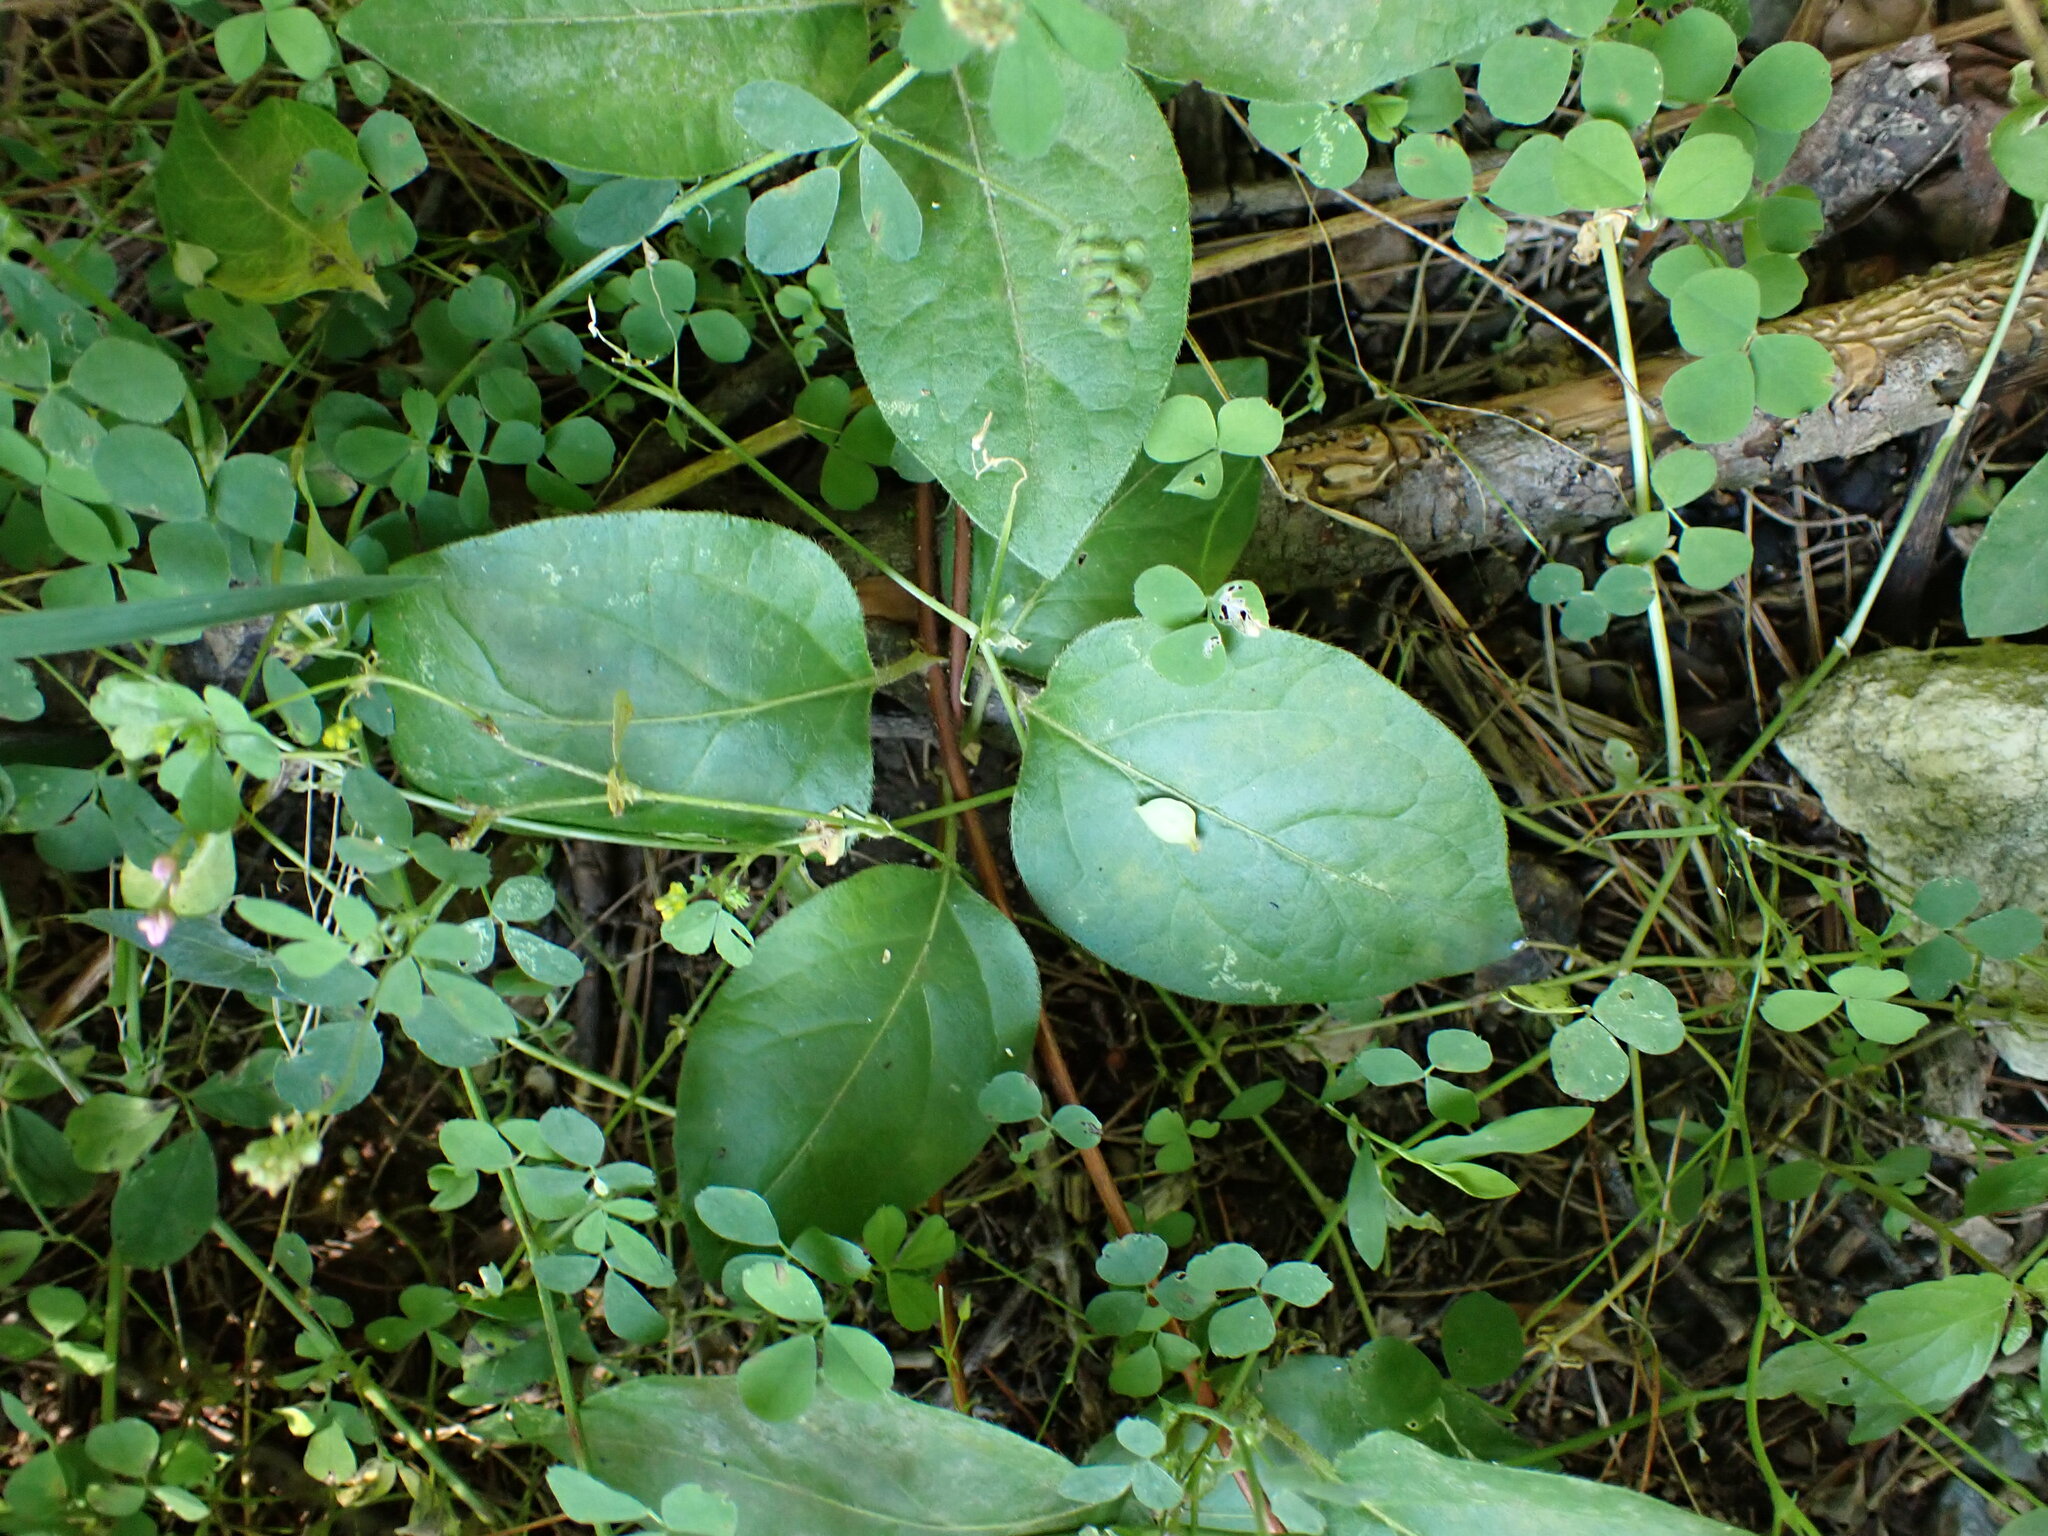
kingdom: Plantae
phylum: Tracheophyta
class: Magnoliopsida
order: Dipsacales
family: Caprifoliaceae
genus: Lonicera
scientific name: Lonicera japonica
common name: Japanese honeysuckle
